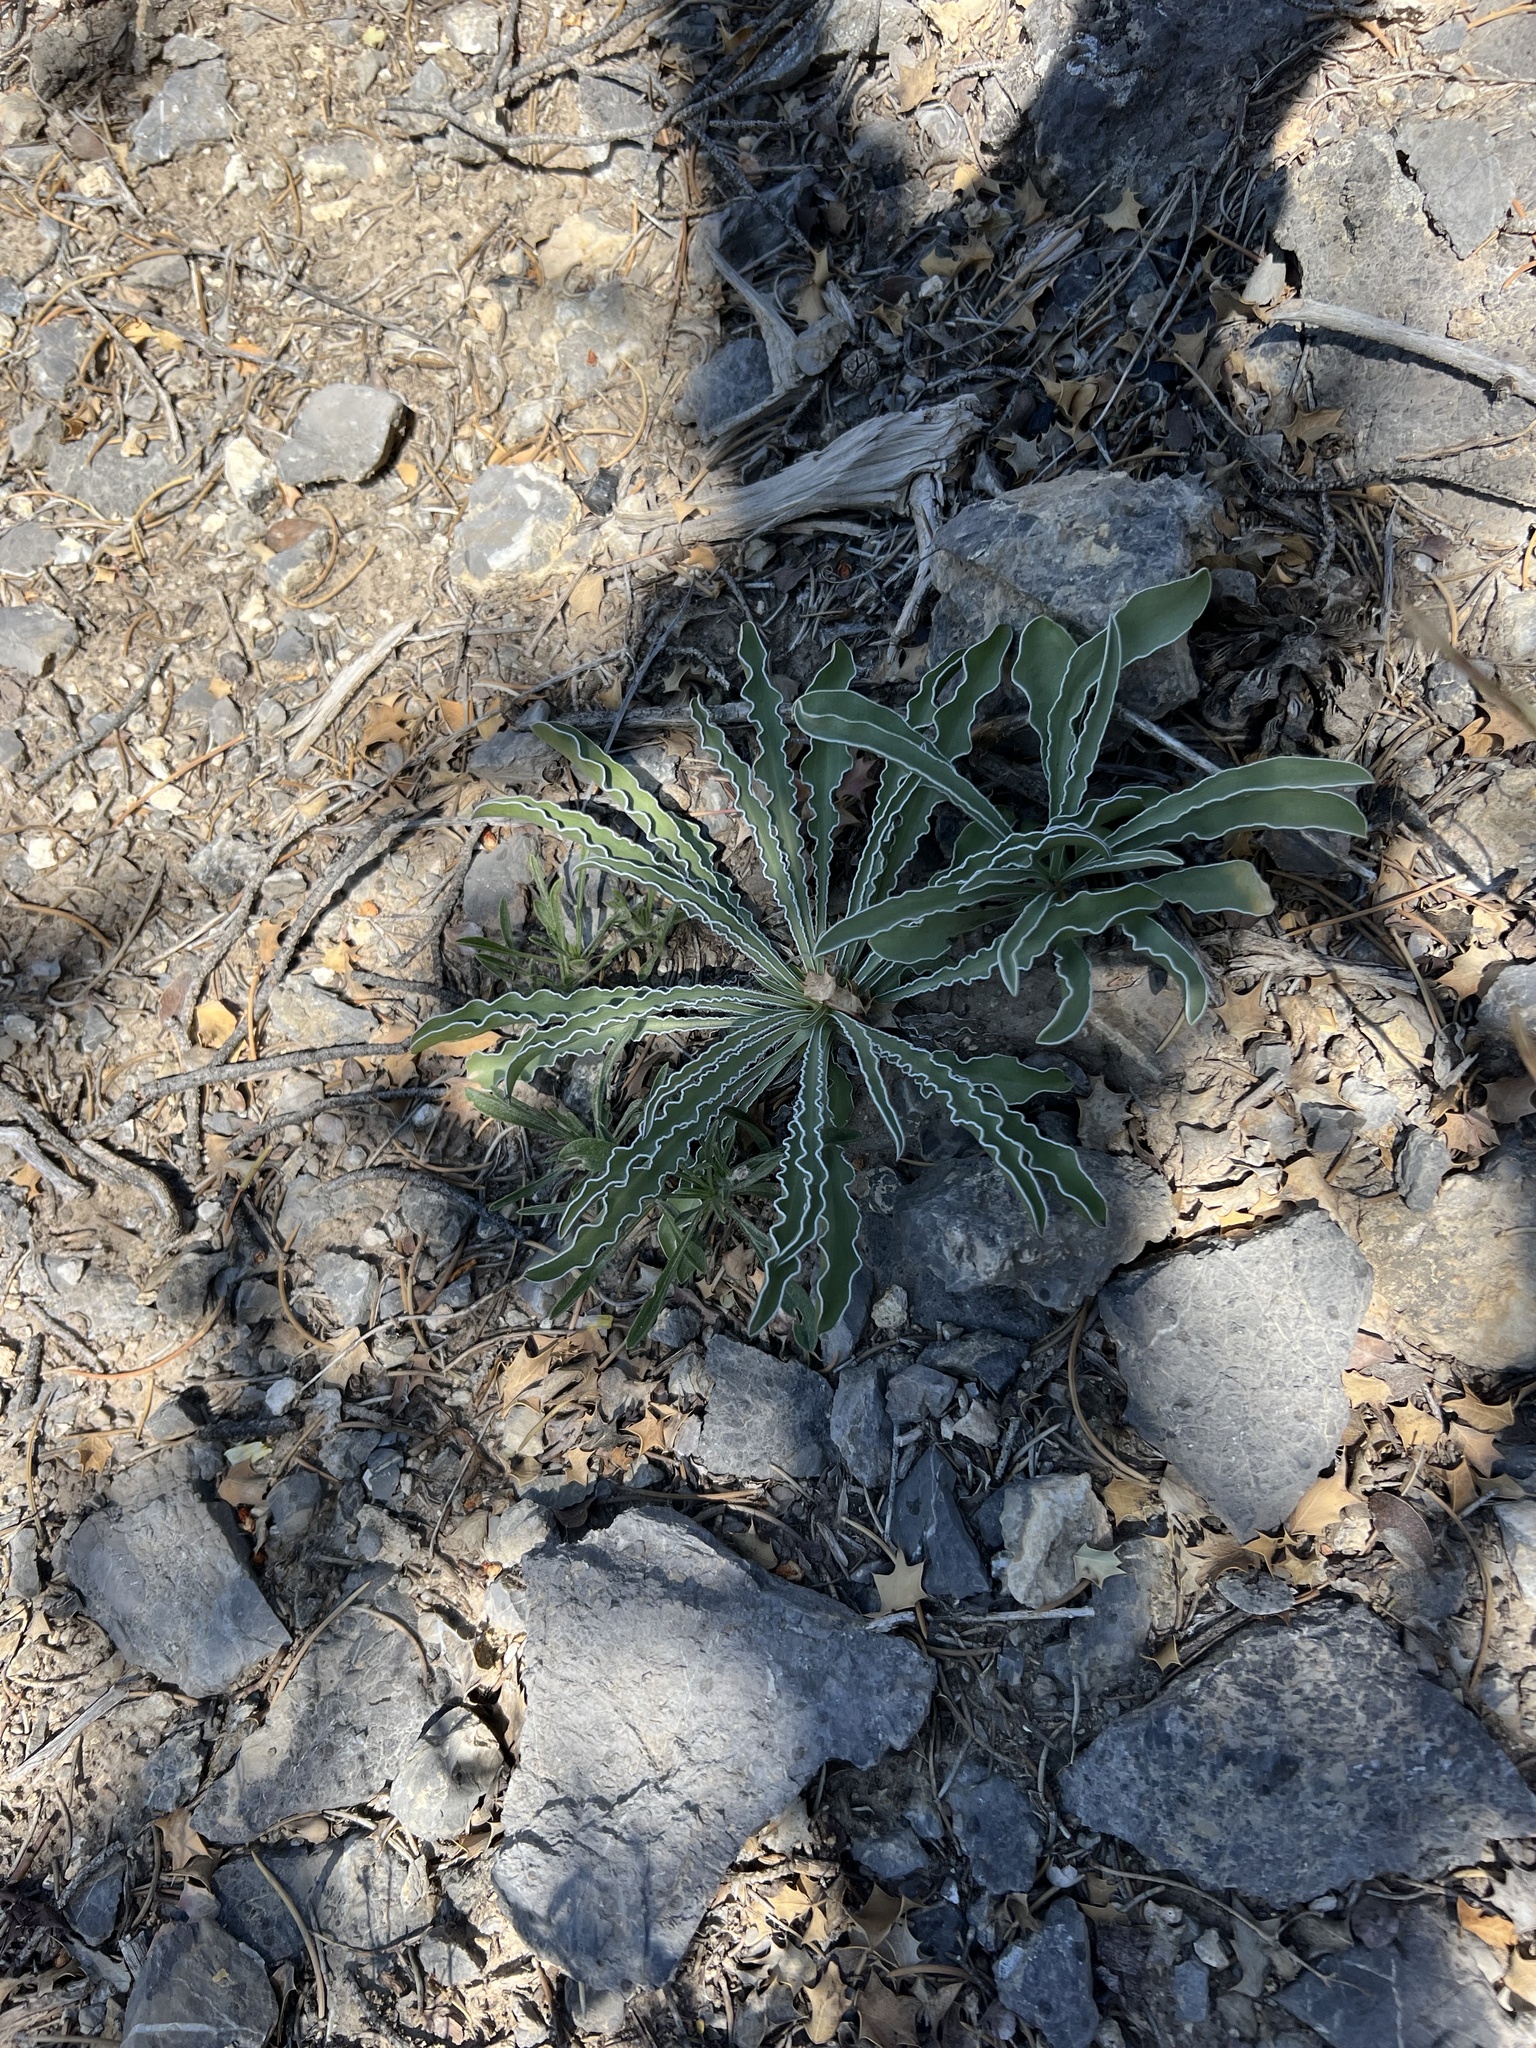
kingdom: Plantae
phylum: Tracheophyta
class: Magnoliopsida
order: Gentianales
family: Gentianaceae
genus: Frasera
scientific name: Frasera albomarginata
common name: Desert frasera
